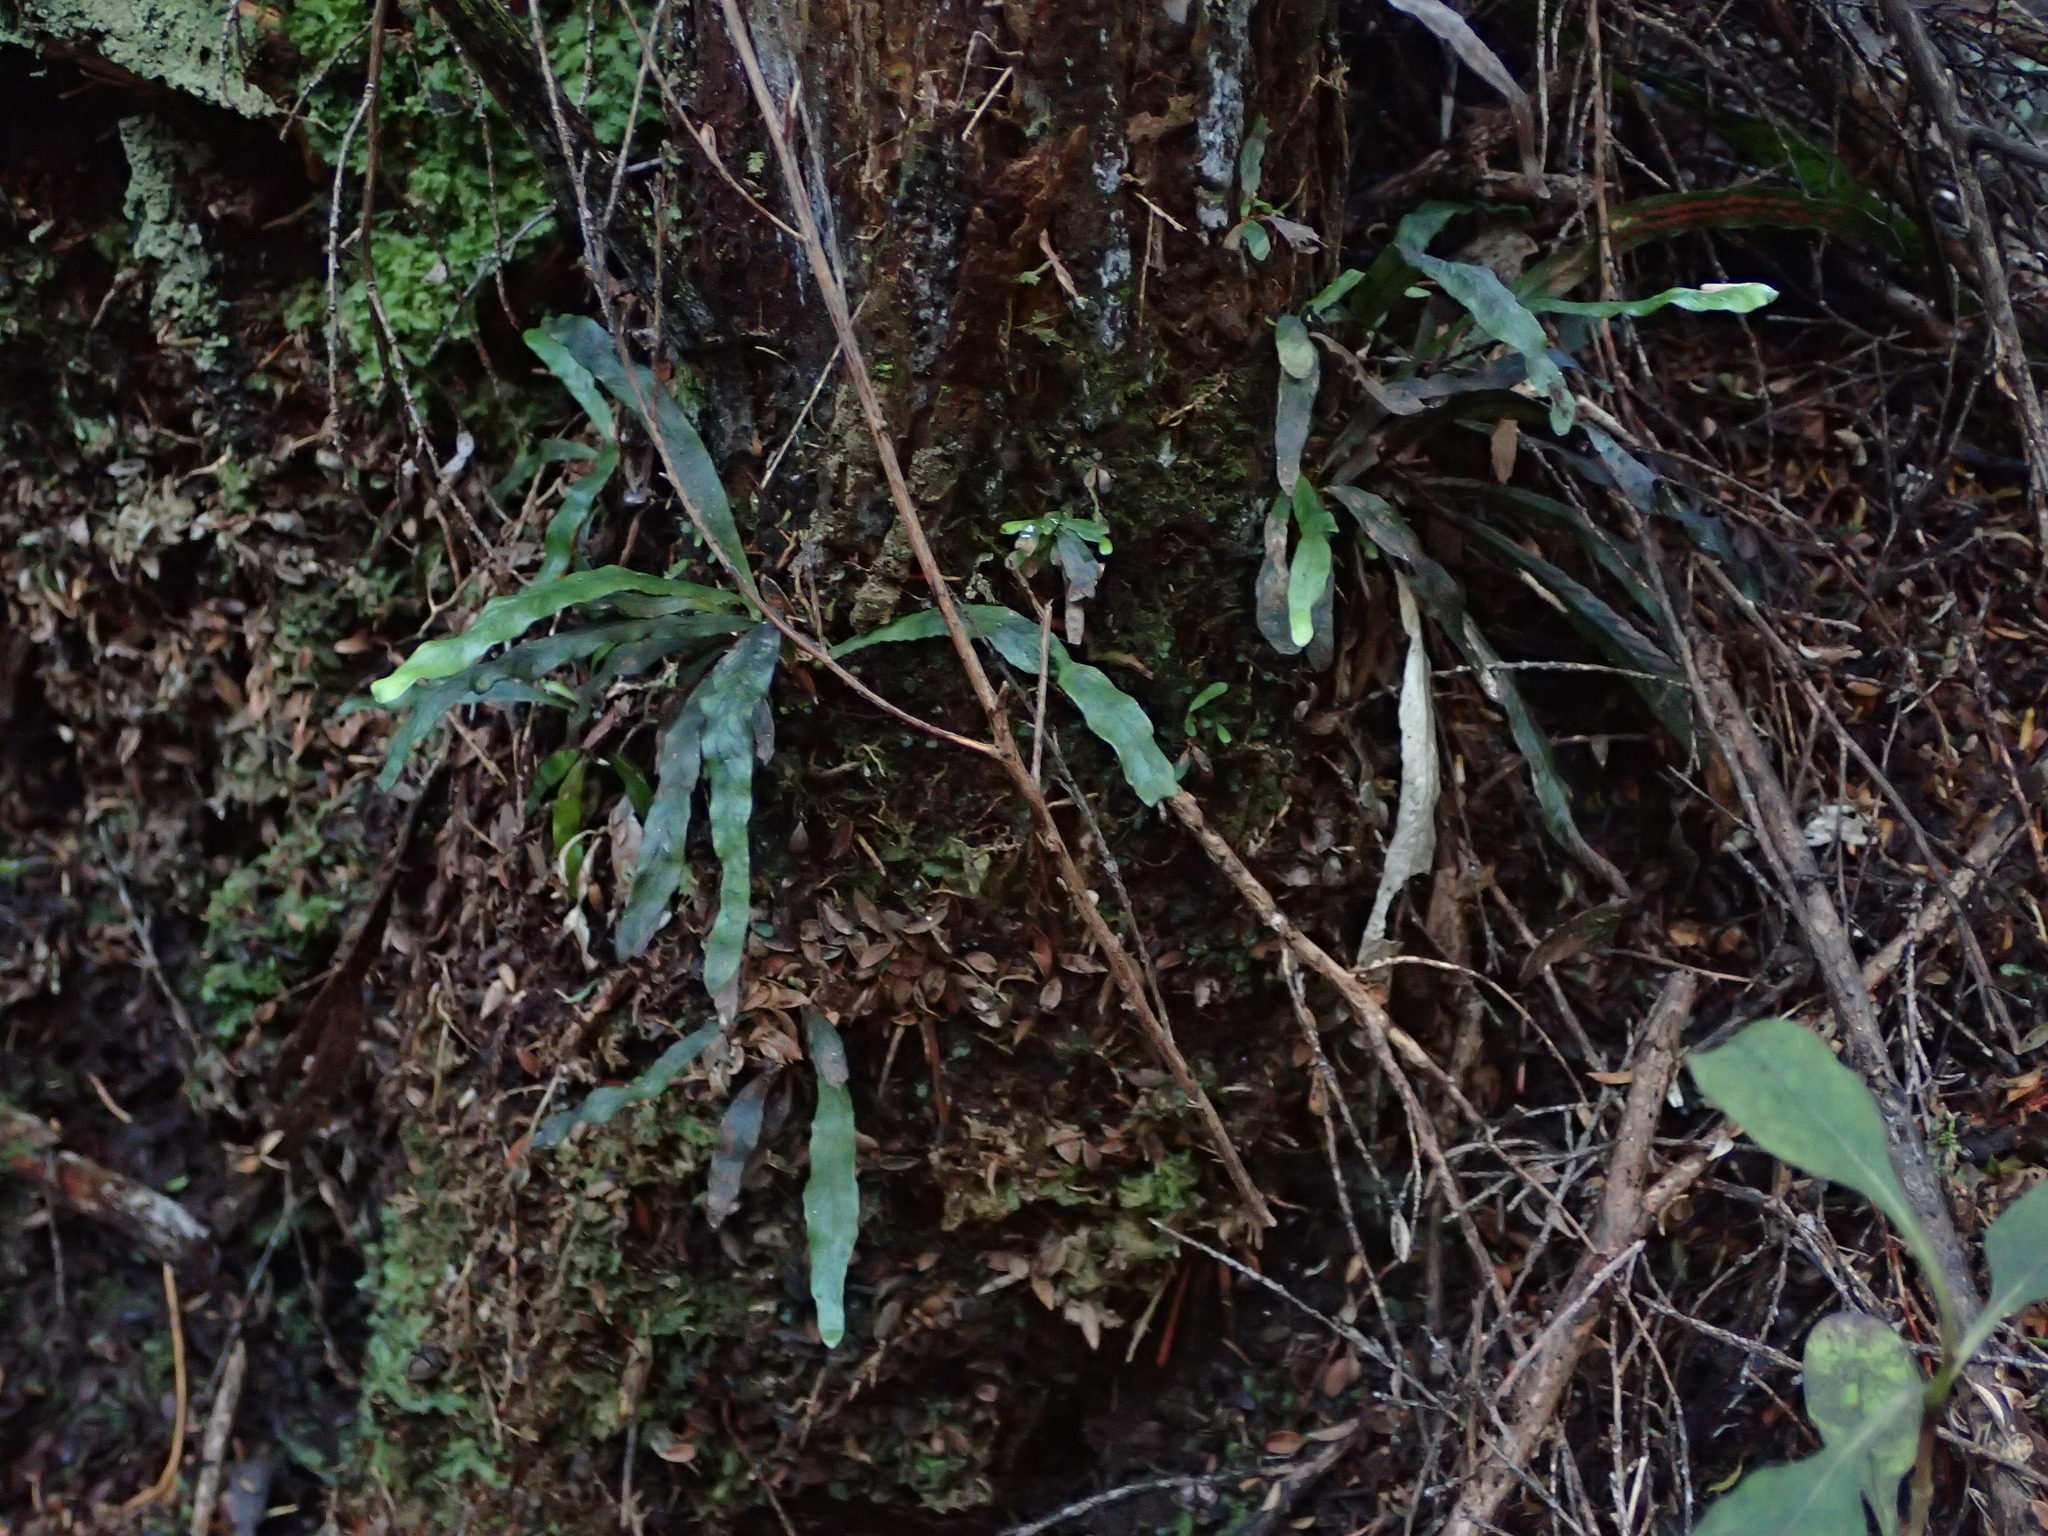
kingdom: Plantae
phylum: Tracheophyta
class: Polypodiopsida
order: Polypodiales
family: Polypodiaceae
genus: Notogrammitis
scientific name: Notogrammitis billardierei
